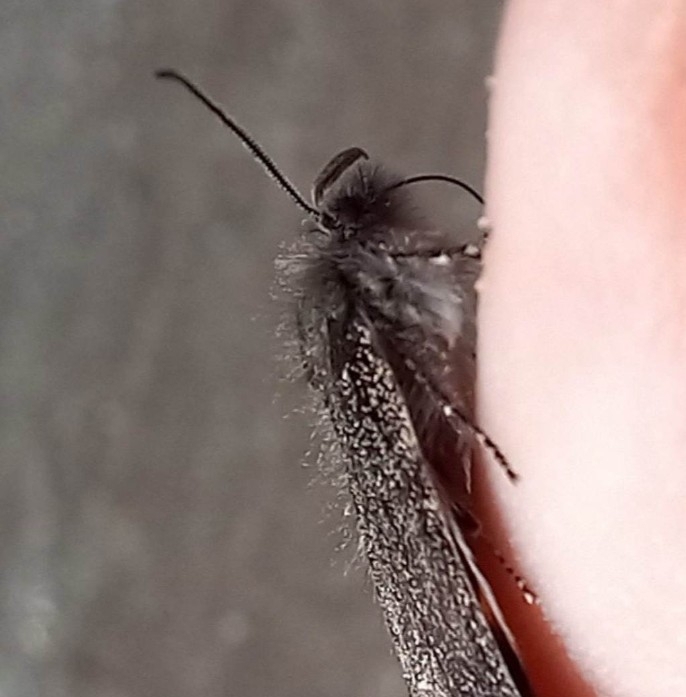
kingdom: Animalia
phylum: Arthropoda
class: Insecta
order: Lepidoptera
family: Geometridae
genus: Boudinotiana
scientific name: Boudinotiana puella
